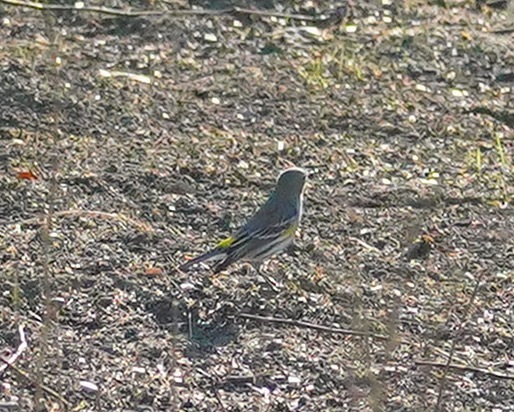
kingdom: Animalia
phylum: Chordata
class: Aves
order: Passeriformes
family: Parulidae
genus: Setophaga
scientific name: Setophaga coronata
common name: Myrtle warbler
